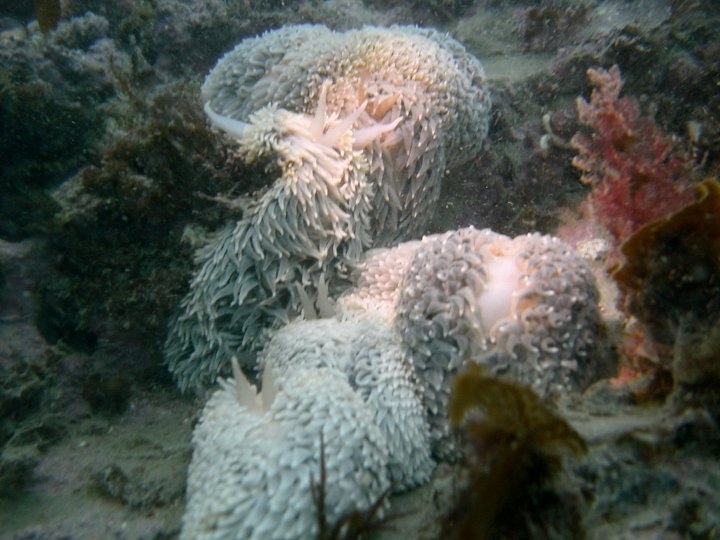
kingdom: Animalia
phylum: Mollusca
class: Gastropoda
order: Nudibranchia
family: Aeolidiidae
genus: Aeolidia
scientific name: Aeolidia campbellii
